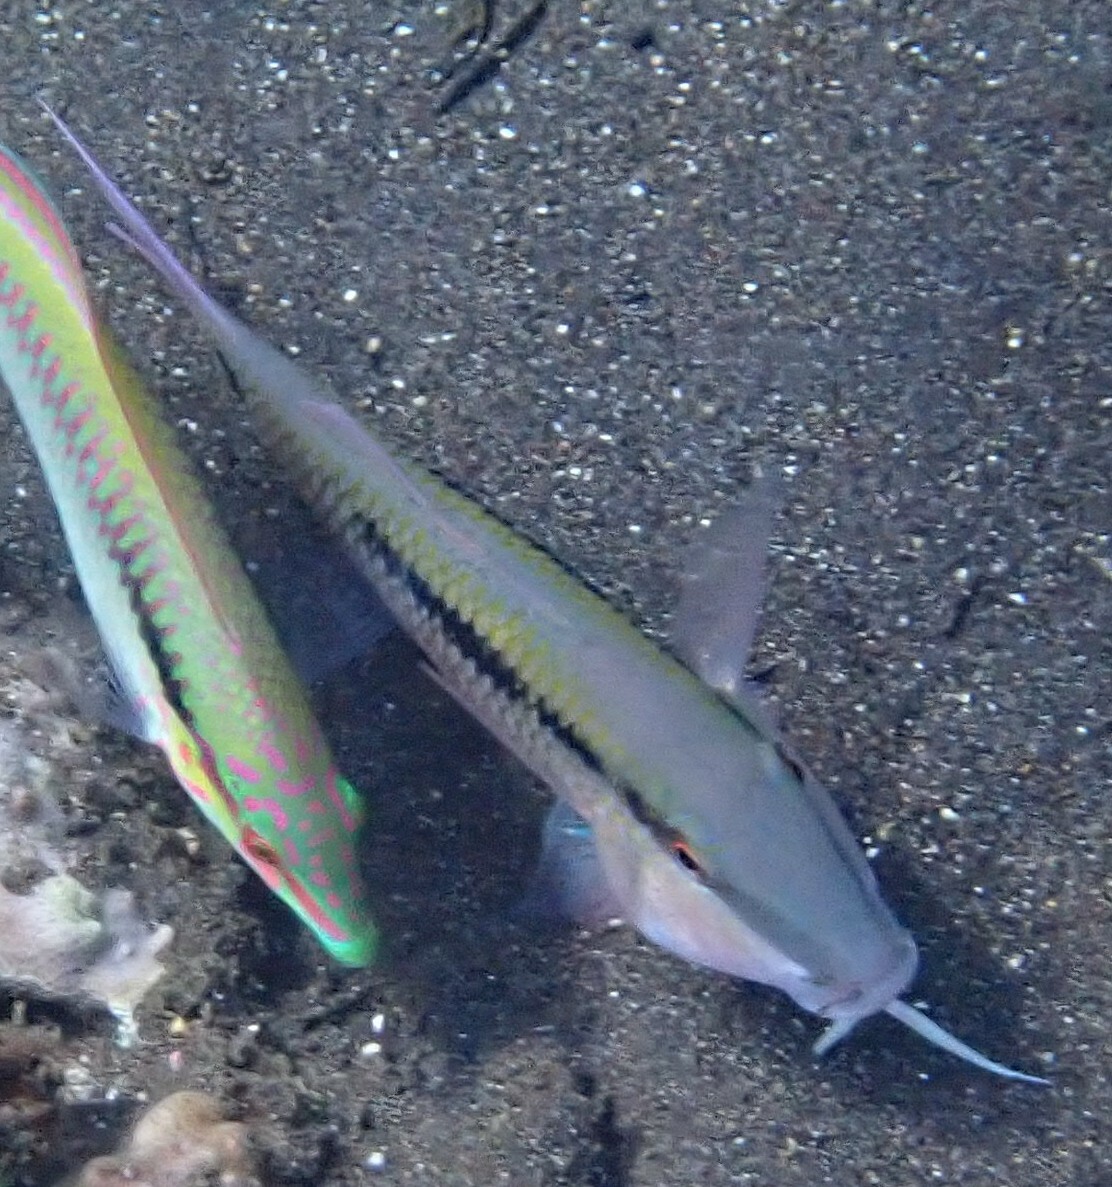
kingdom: Animalia
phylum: Chordata
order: Perciformes
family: Mullidae
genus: Parupeneus
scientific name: Parupeneus barberinus
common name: Dash-and-dot goatfish
